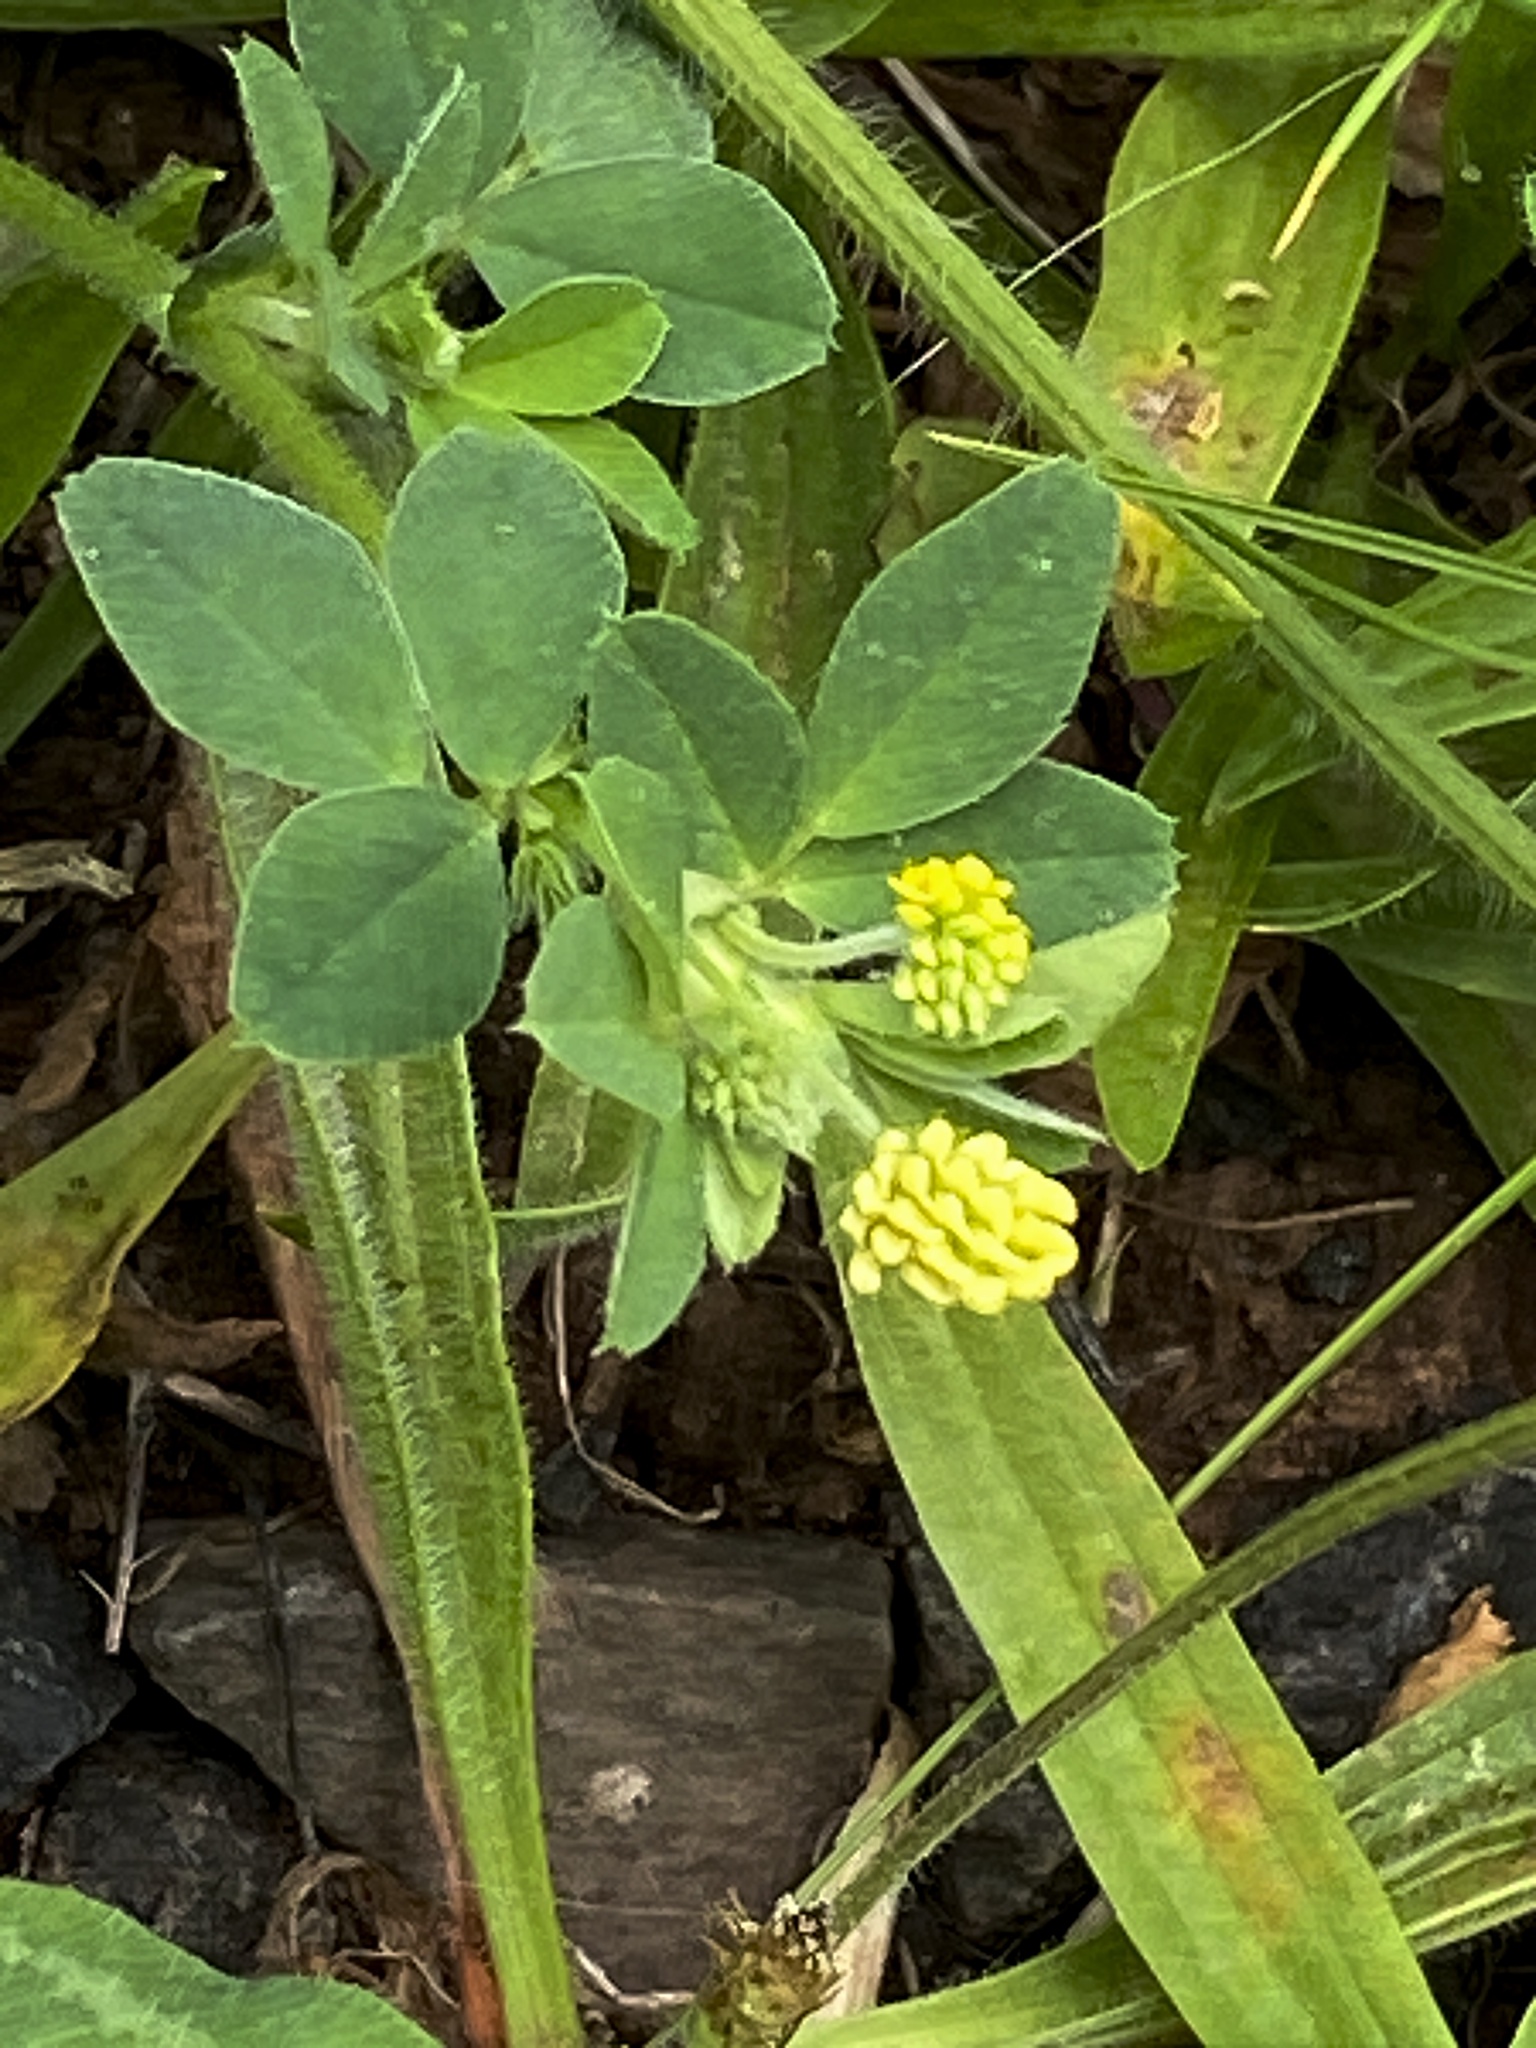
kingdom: Plantae
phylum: Tracheophyta
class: Magnoliopsida
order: Fabales
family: Fabaceae
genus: Medicago
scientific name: Medicago lupulina
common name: Black medick
